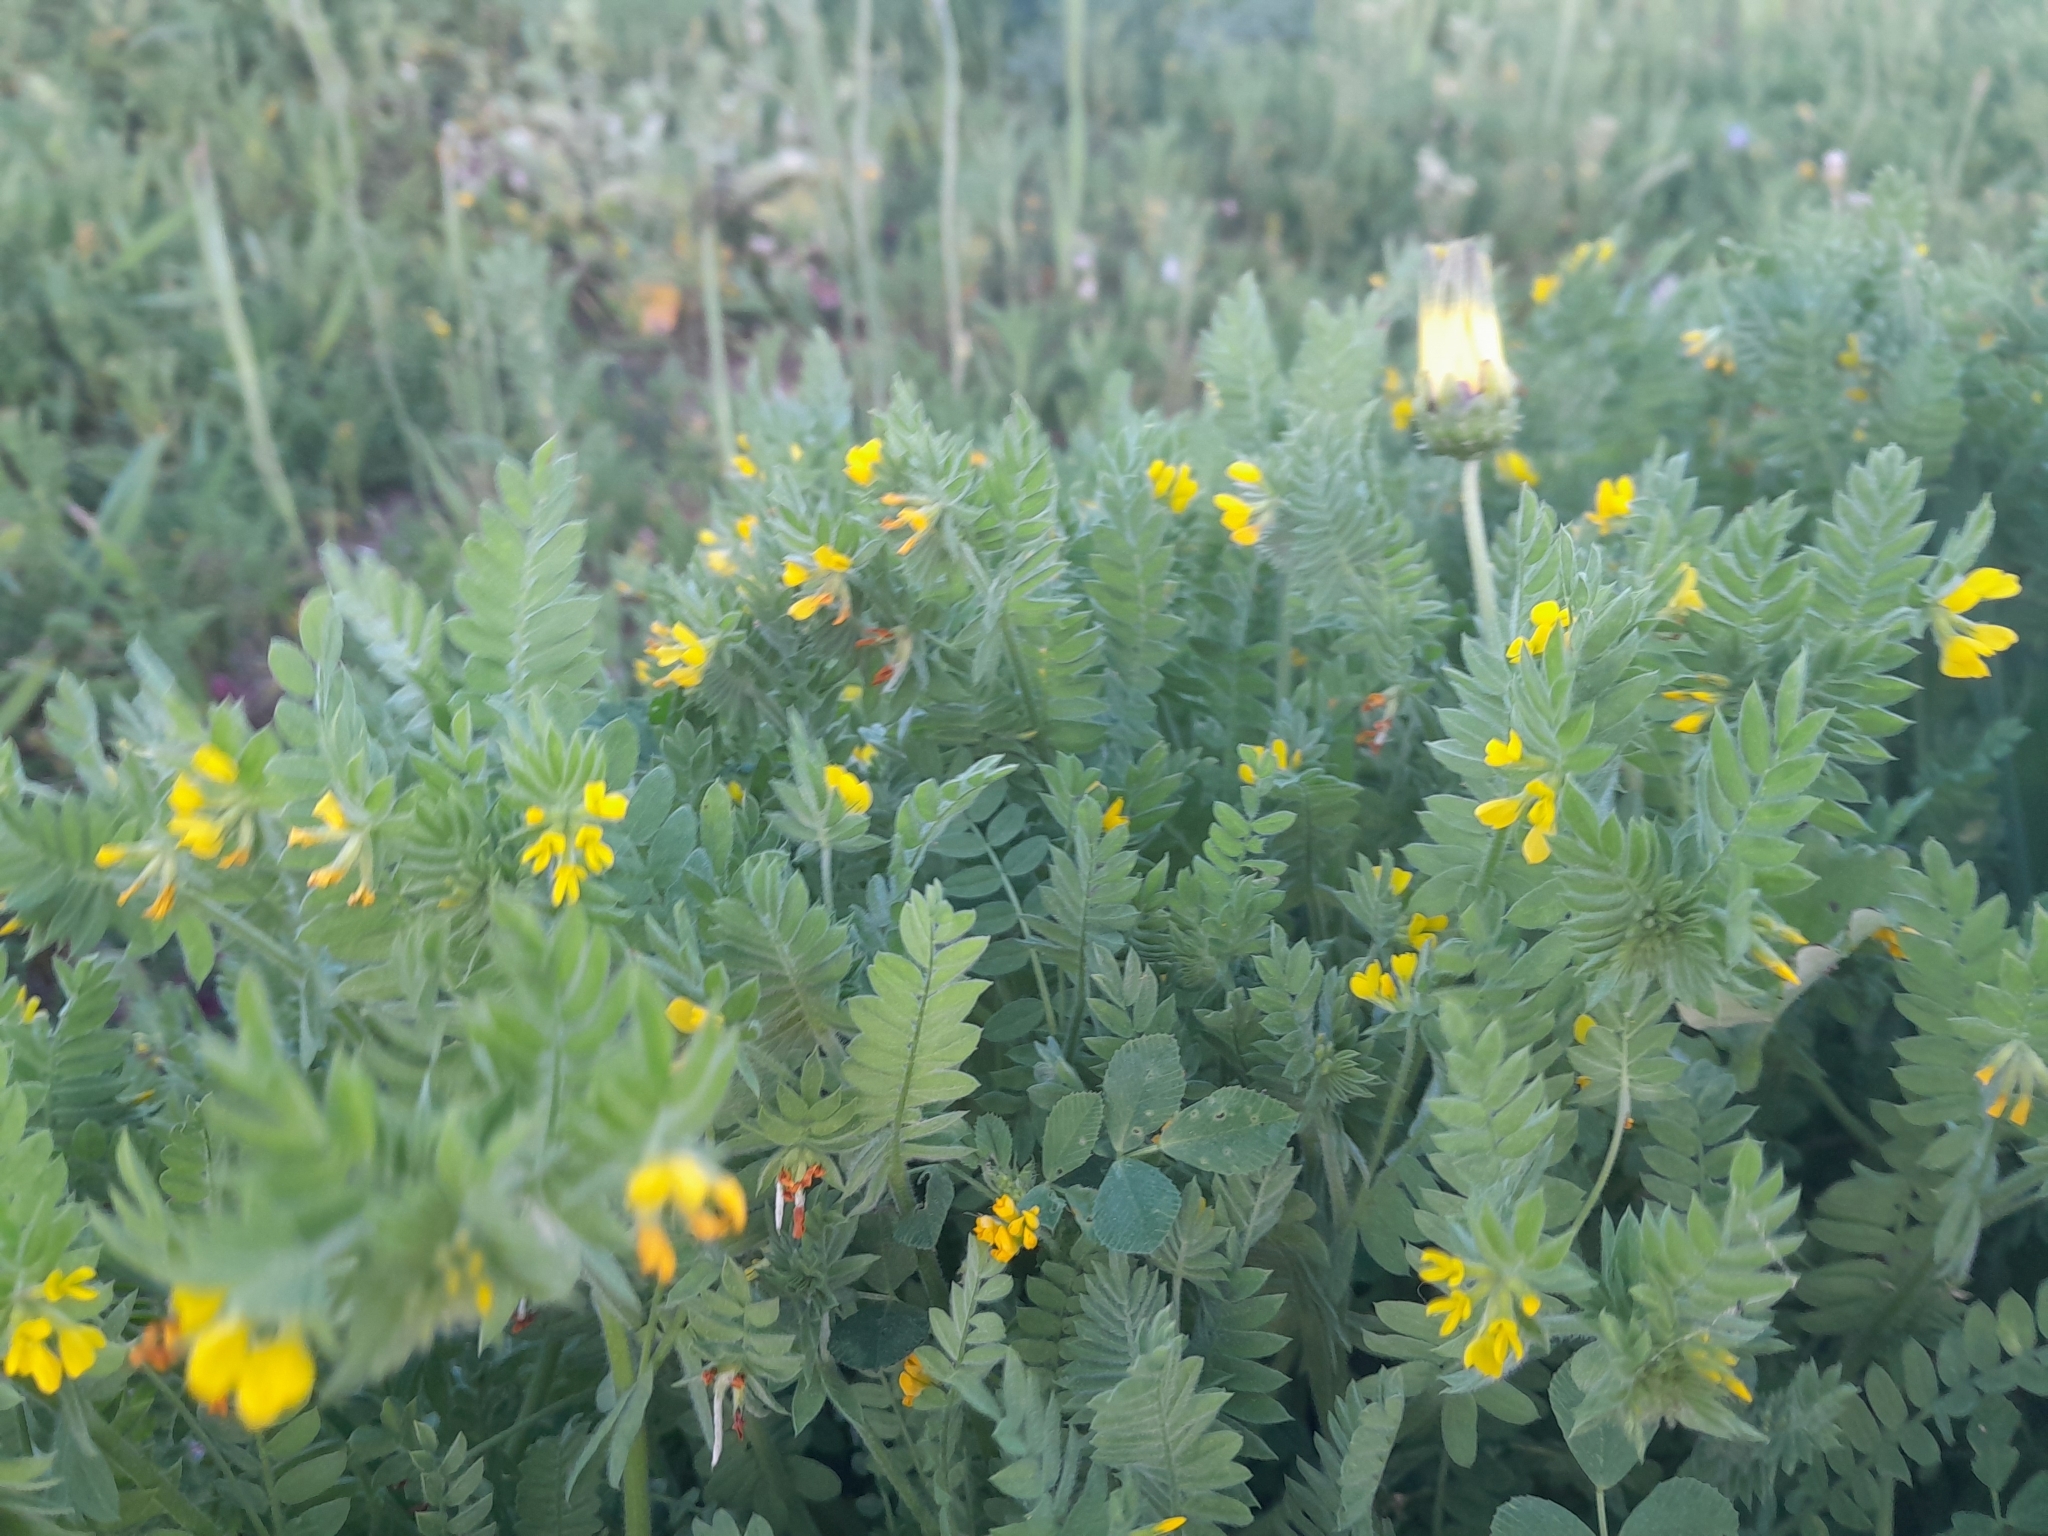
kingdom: Plantae
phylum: Tracheophyta
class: Magnoliopsida
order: Fabales
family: Fabaceae
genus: Ornithopus
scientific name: Ornithopus compressus
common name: Yellow serradella
